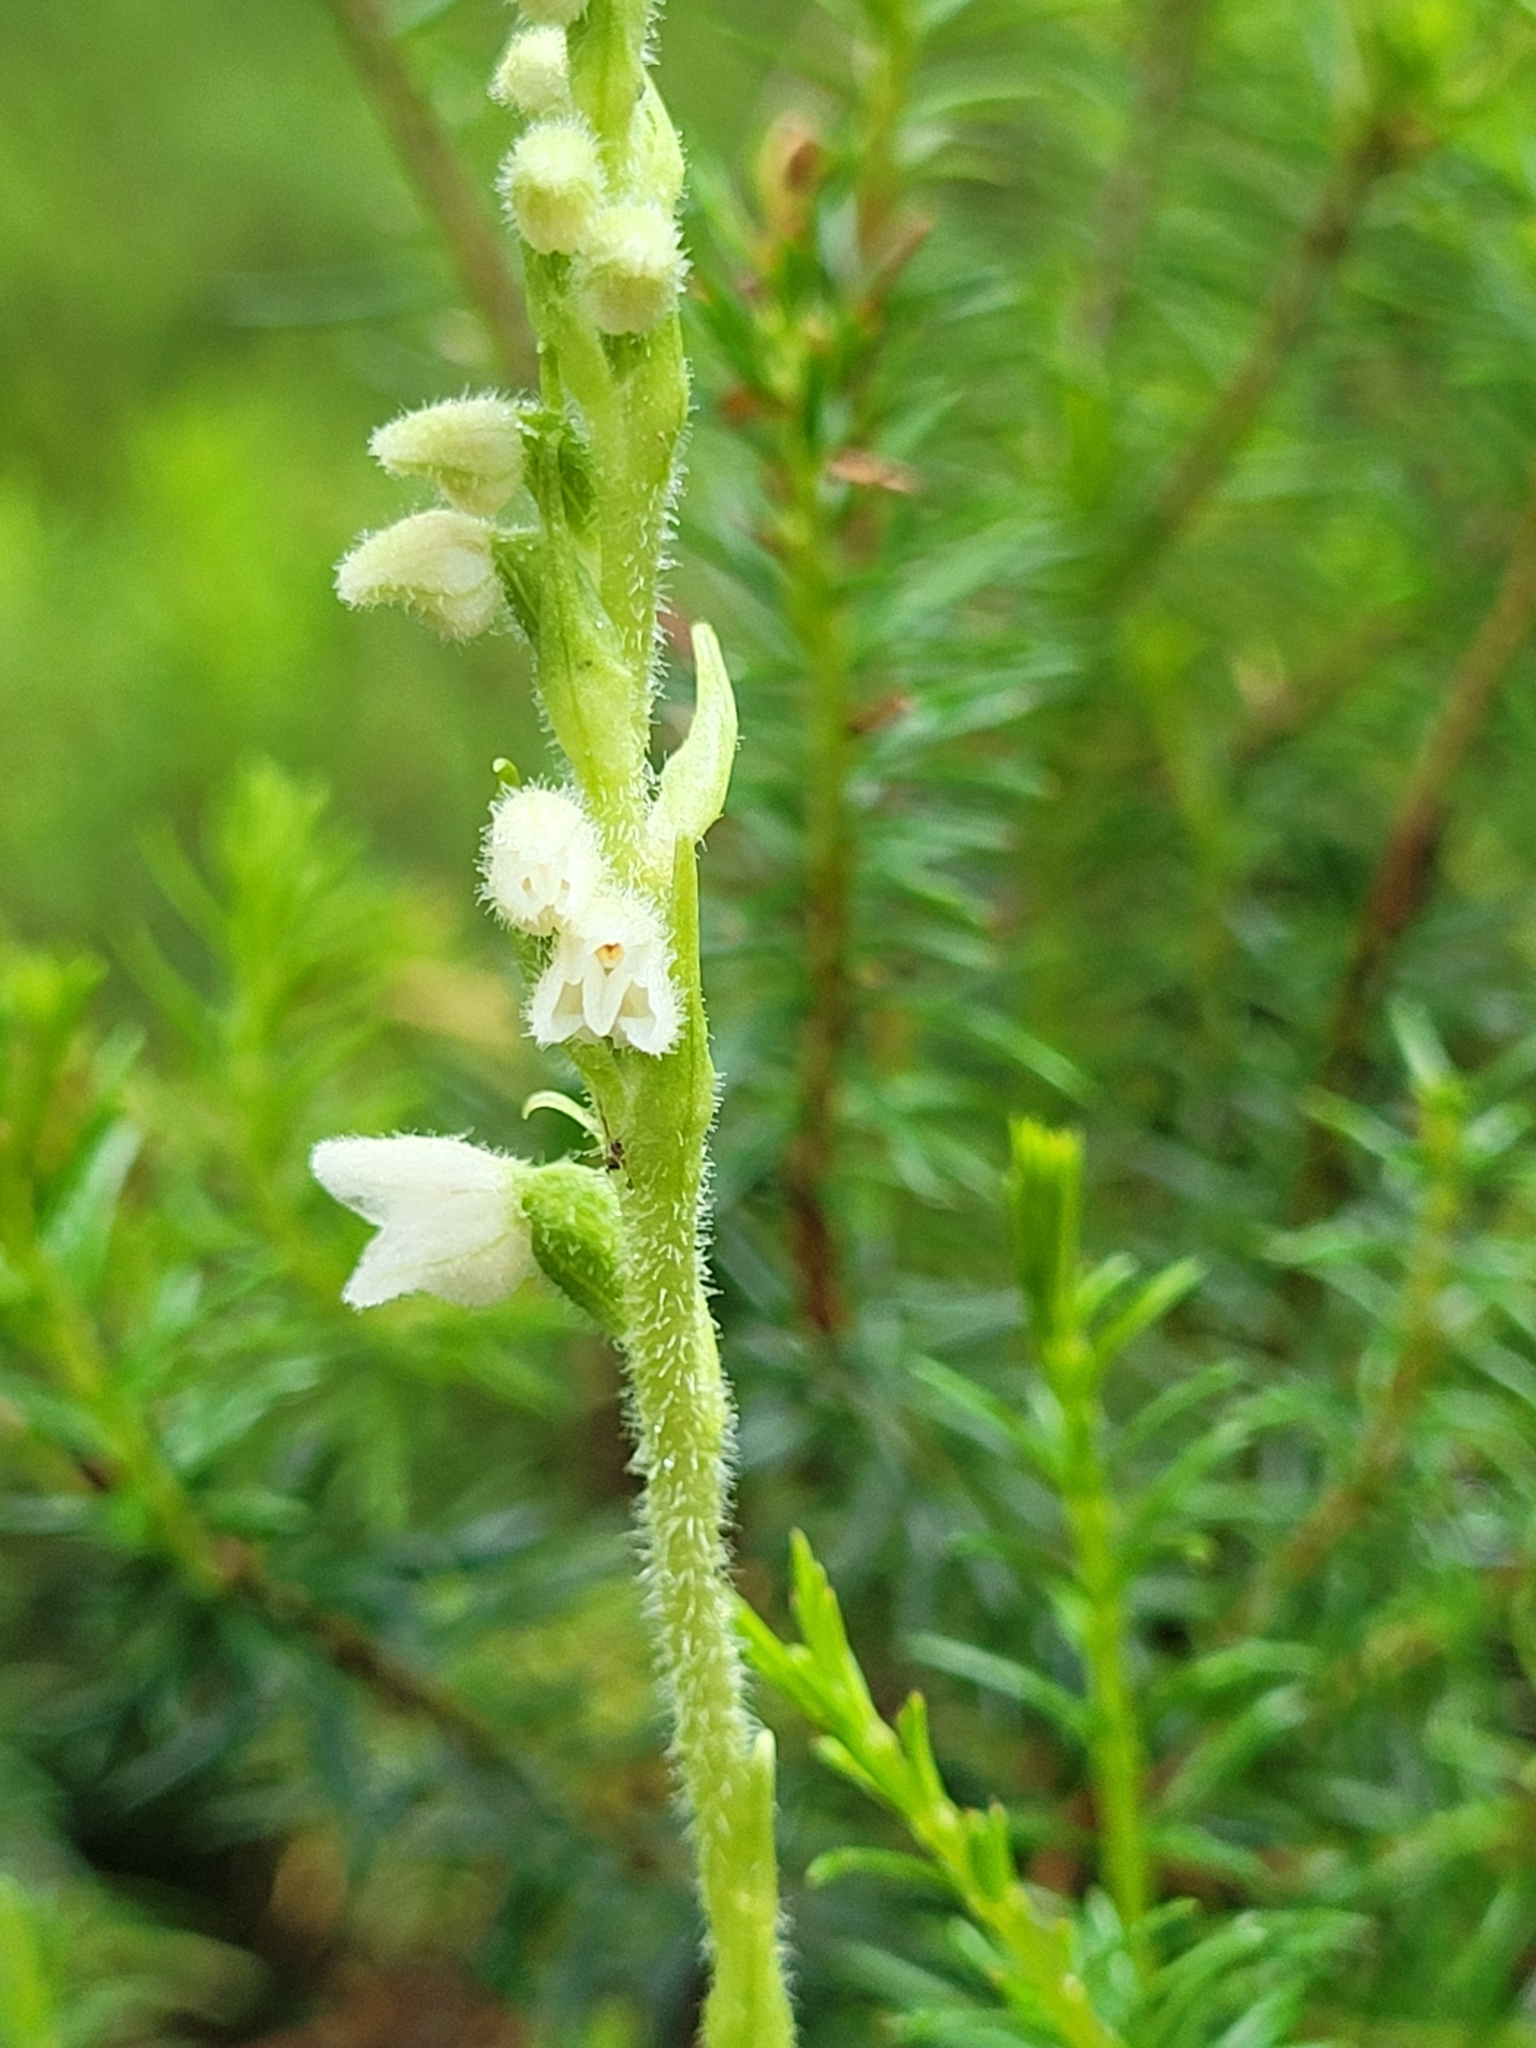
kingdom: Plantae
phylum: Tracheophyta
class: Liliopsida
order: Asparagales
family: Orchidaceae
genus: Goodyera
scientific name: Goodyera repens
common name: Creeping lady's-tresses
